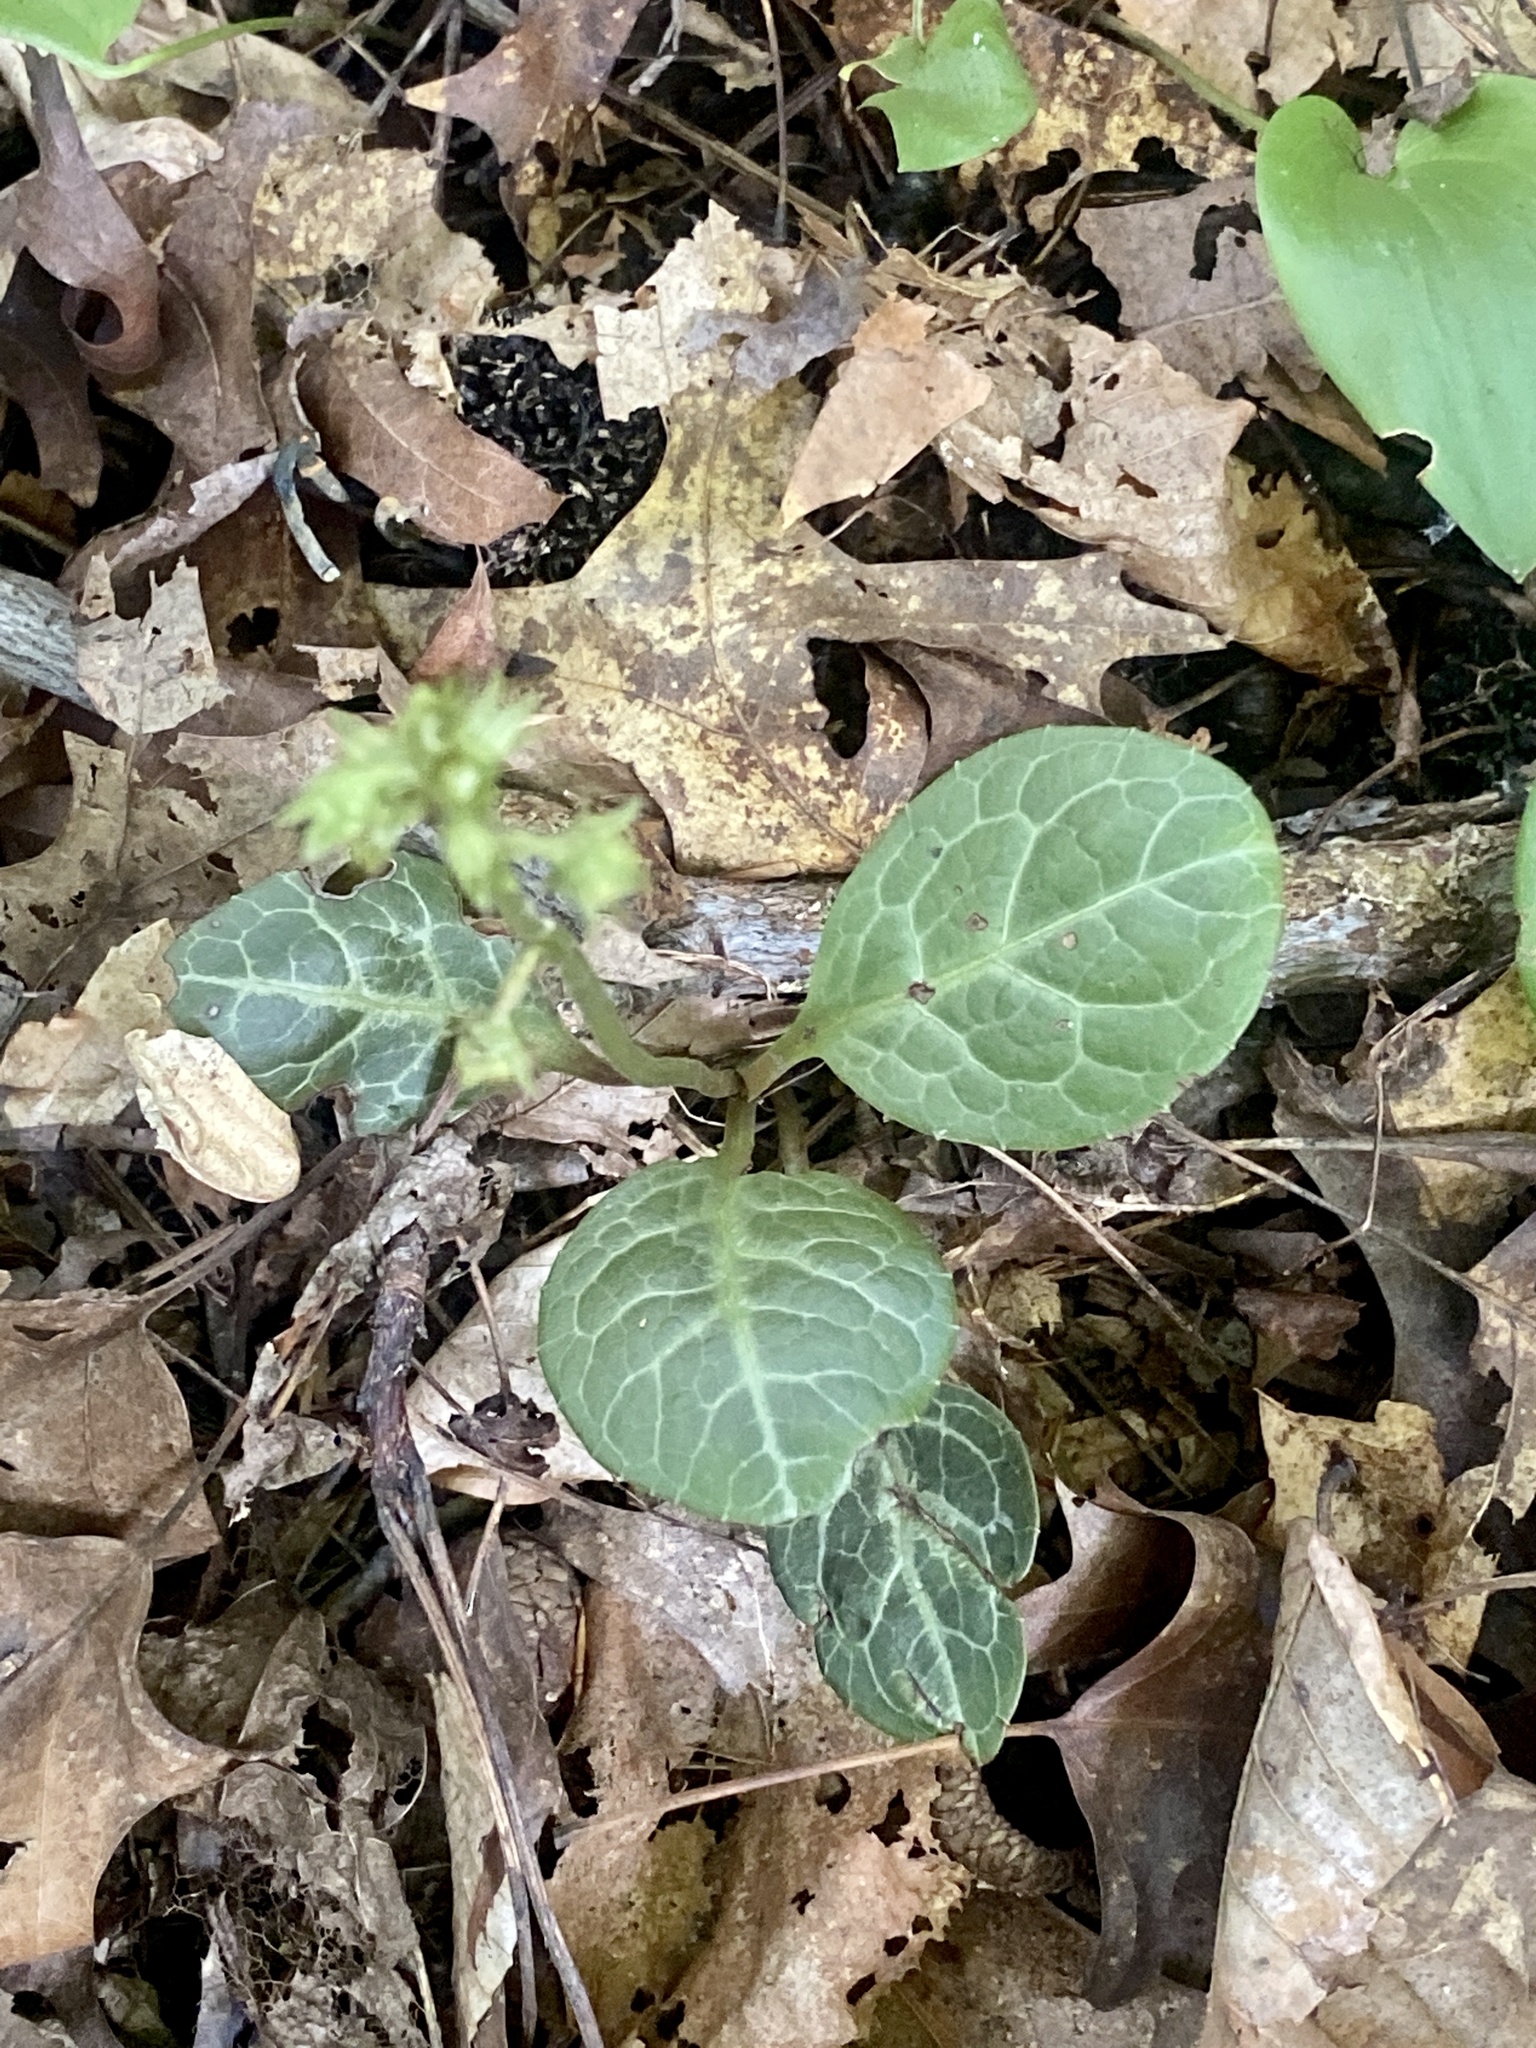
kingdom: Plantae
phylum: Tracheophyta
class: Magnoliopsida
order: Ericales
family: Ericaceae
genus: Pyrola
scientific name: Pyrola americana
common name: American wintergreen
